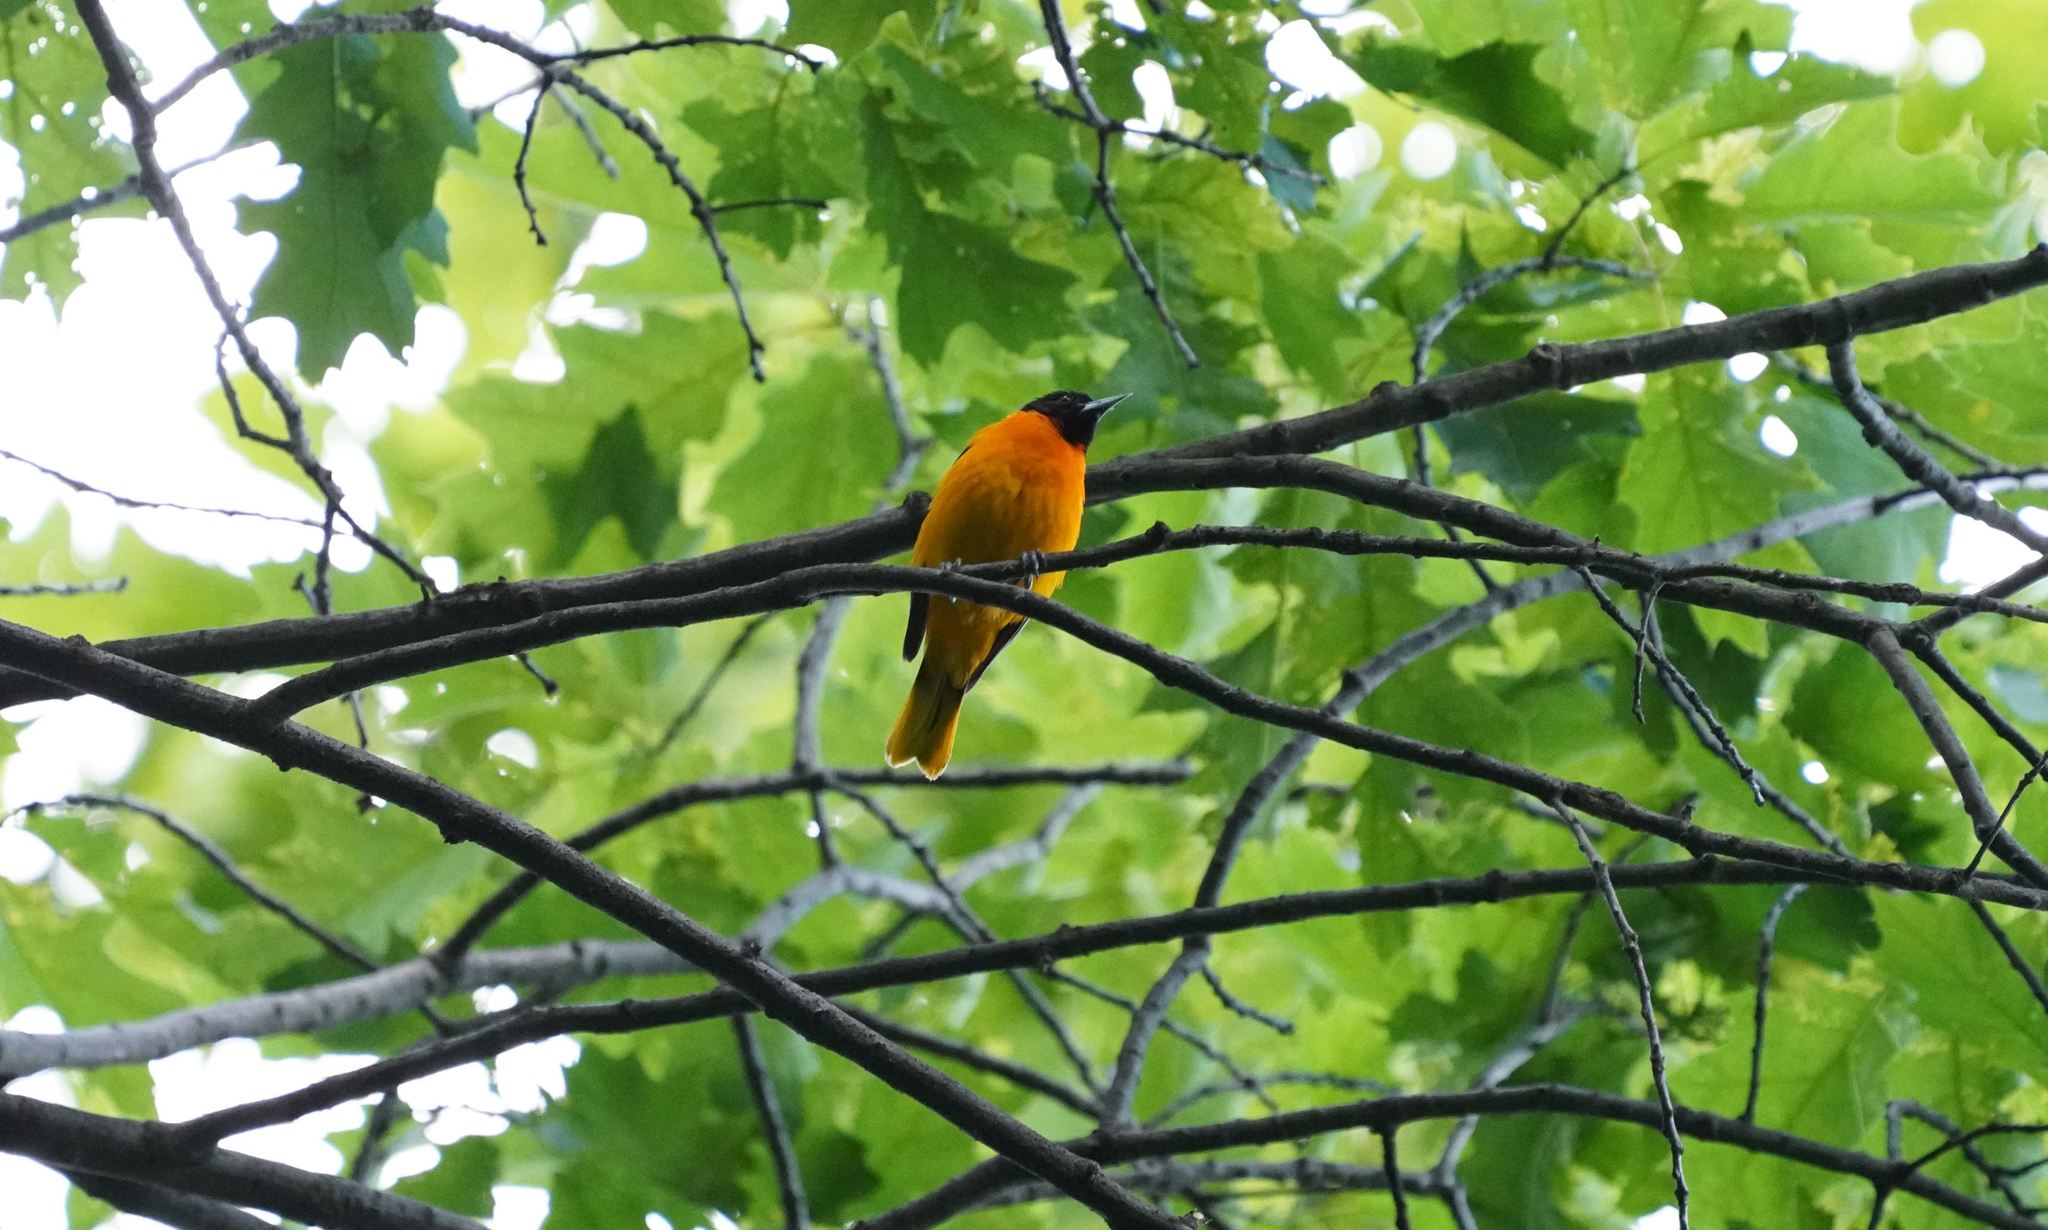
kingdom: Animalia
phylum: Chordata
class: Aves
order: Passeriformes
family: Icteridae
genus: Icterus
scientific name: Icterus galbula
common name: Baltimore oriole
